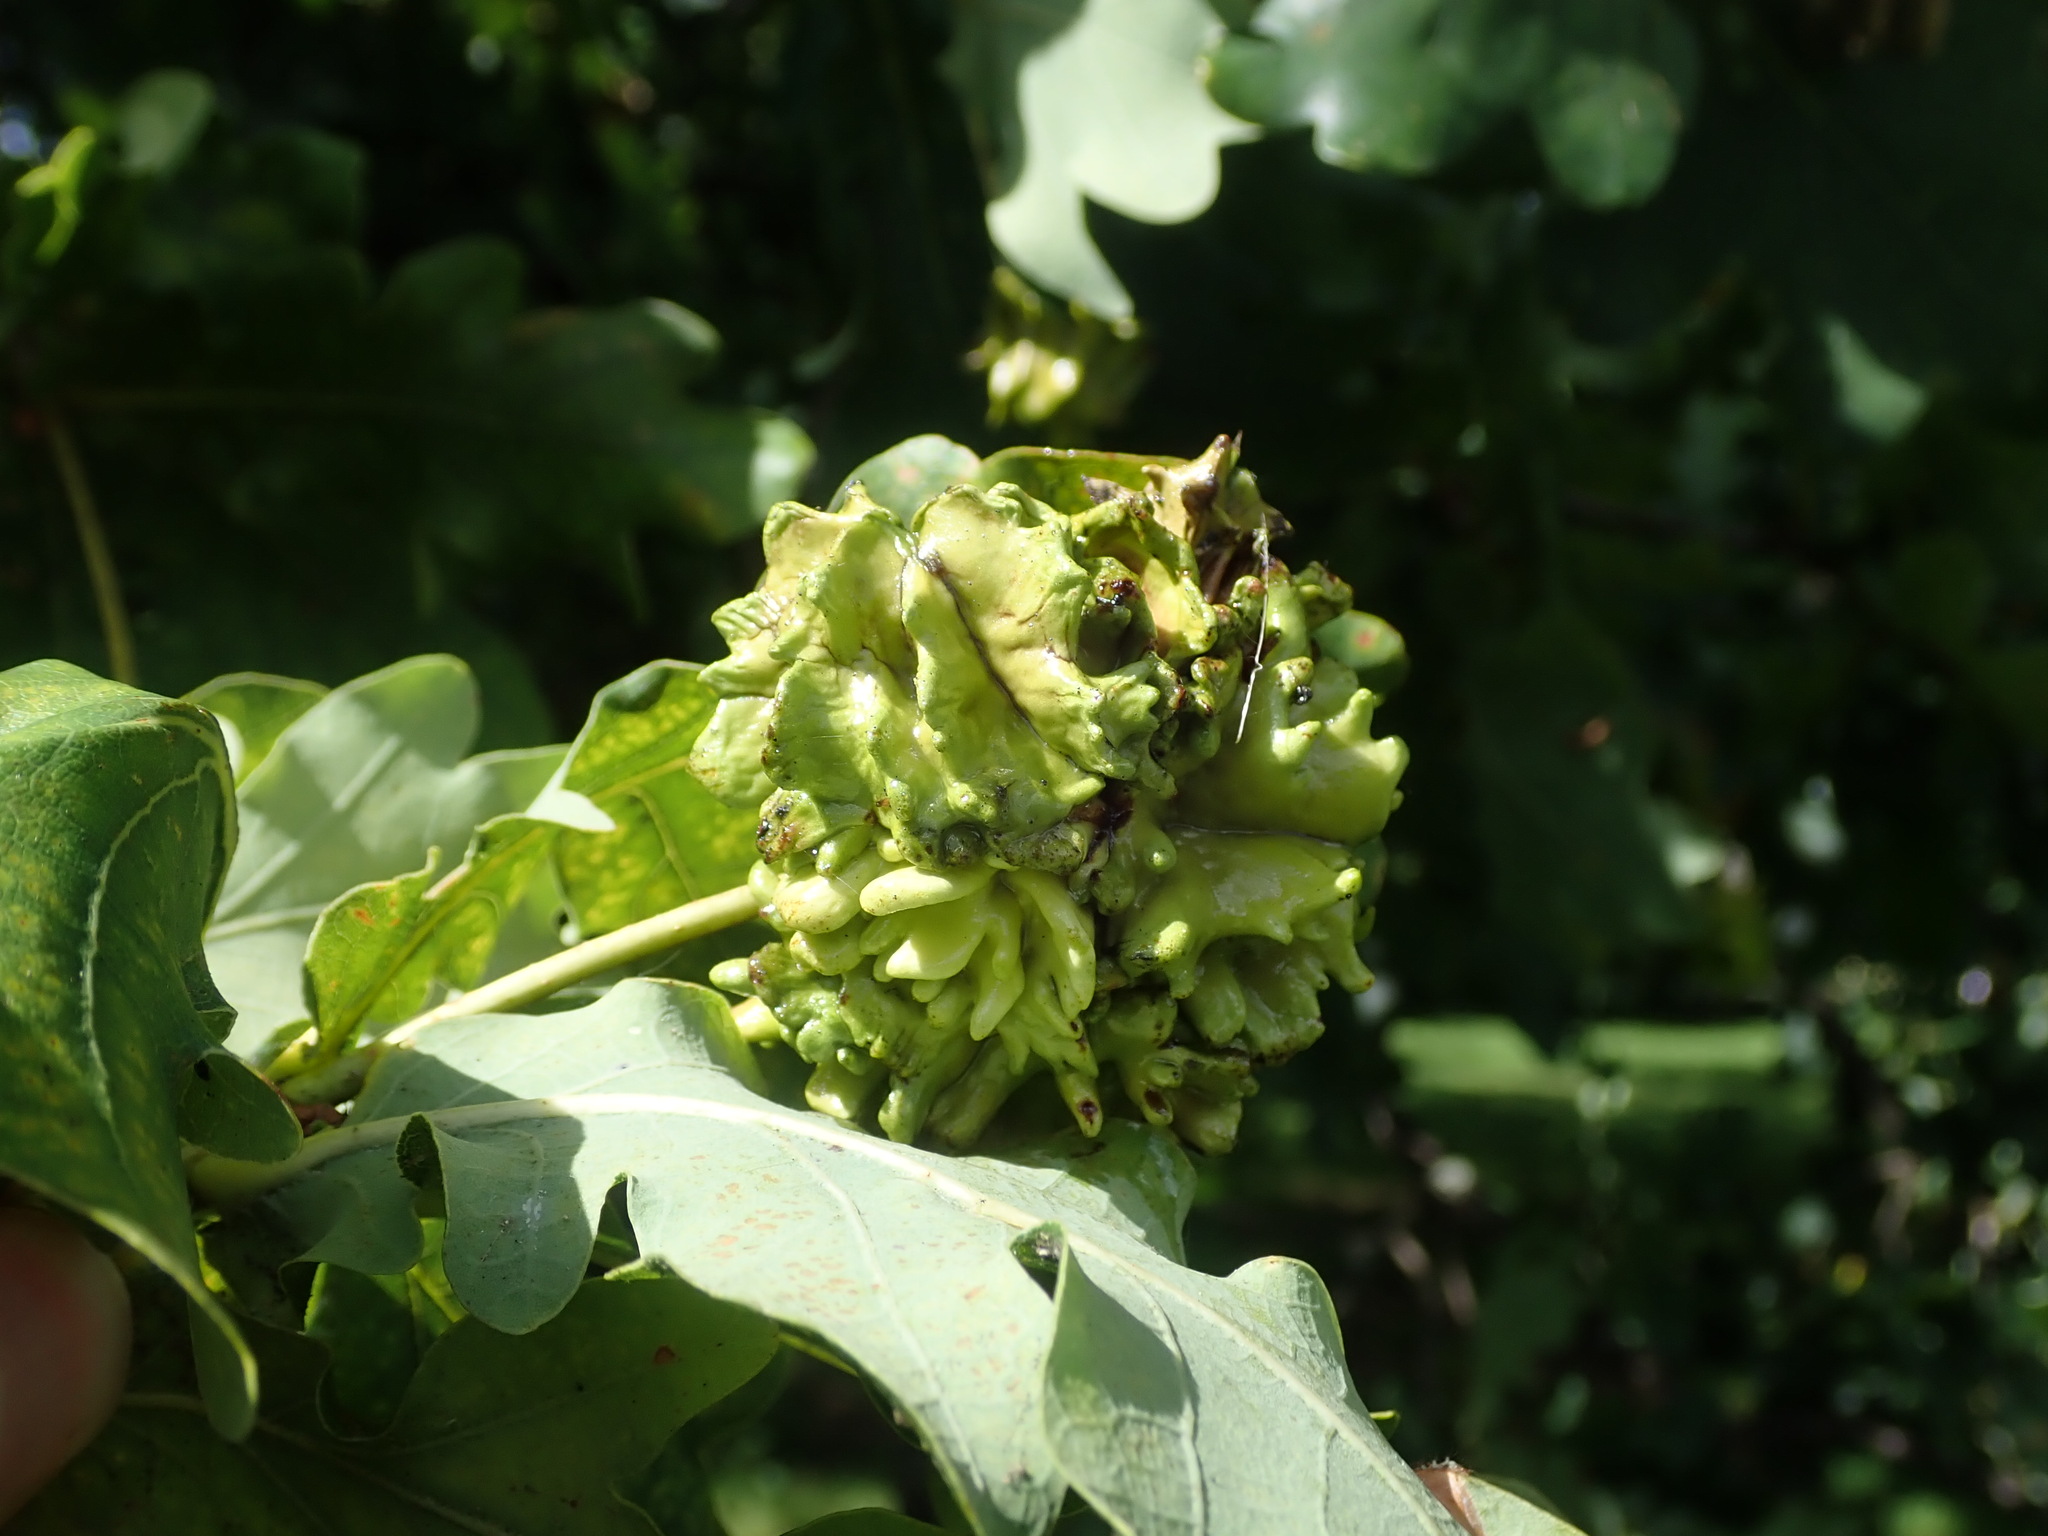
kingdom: Animalia
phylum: Arthropoda
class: Insecta
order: Hymenoptera
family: Cynipidae
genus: Andricus
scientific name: Andricus quercuscalicis
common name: Knopper gall
